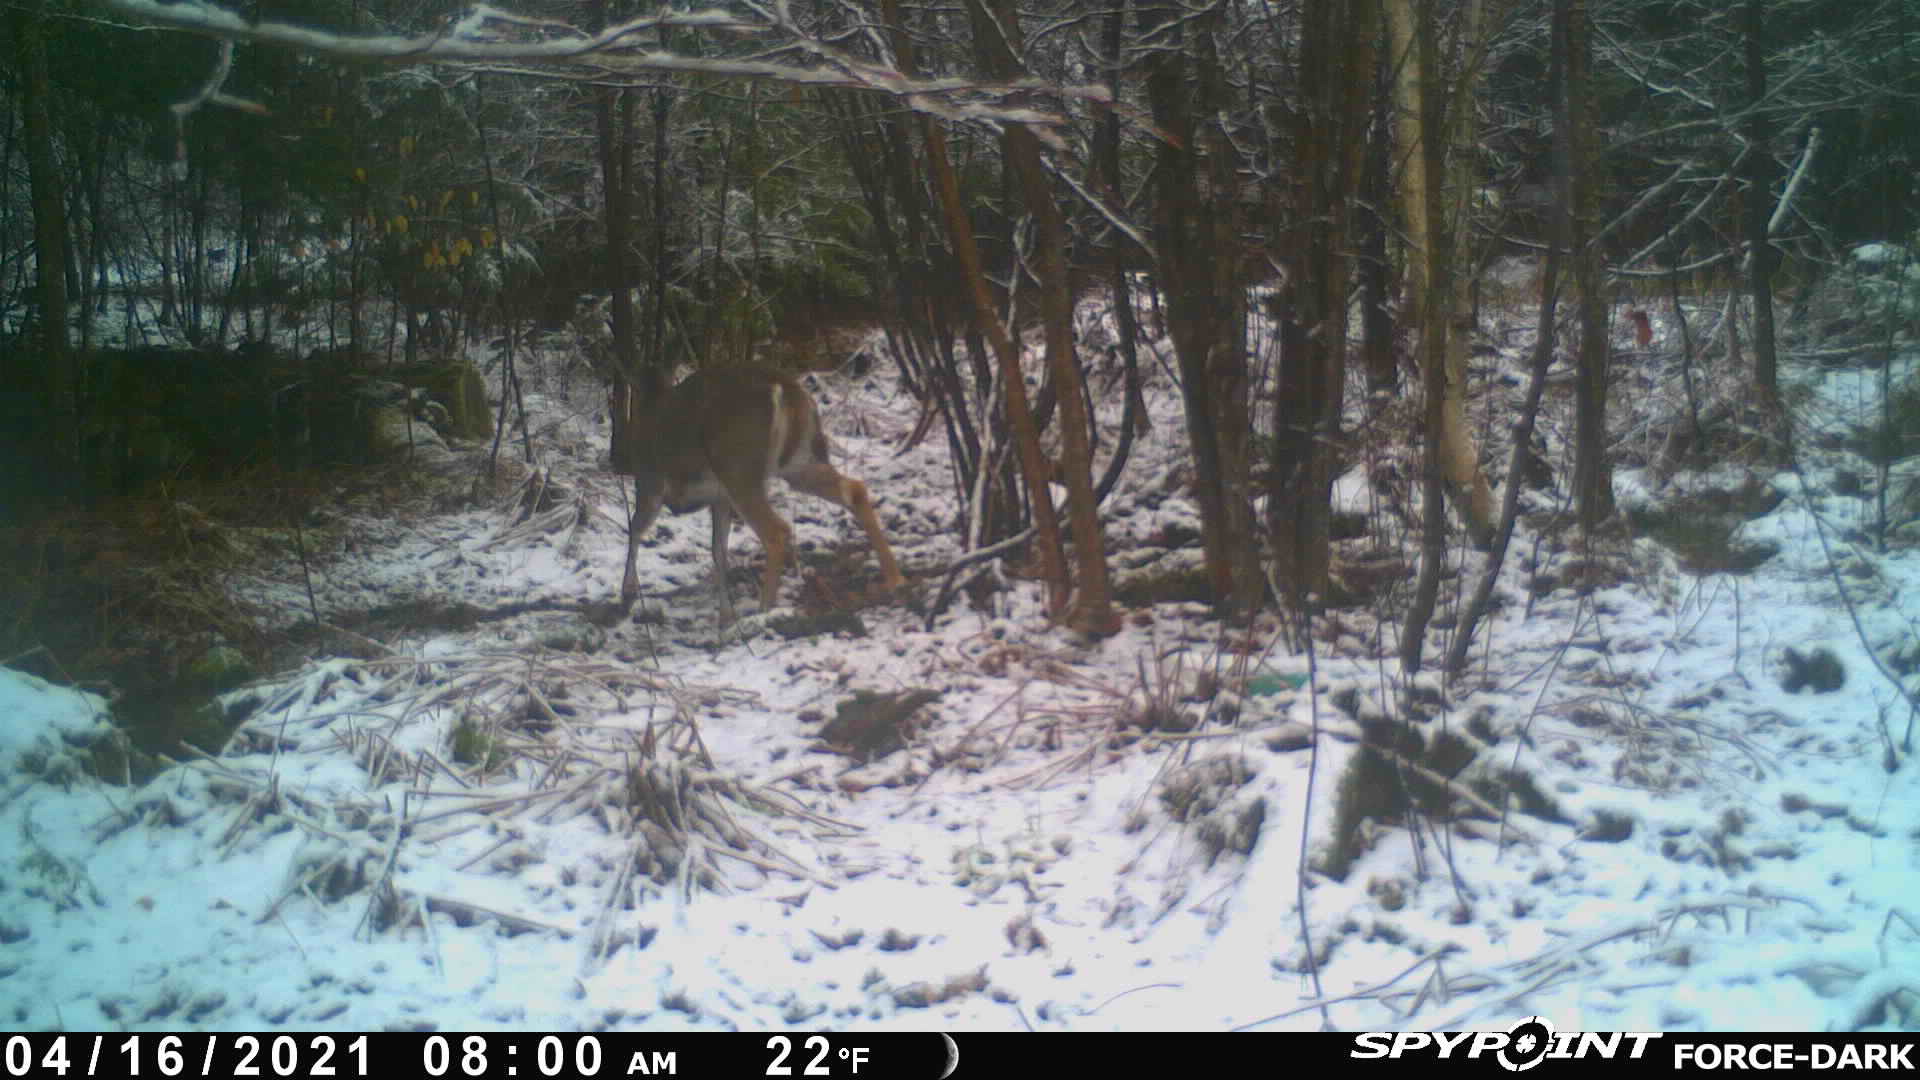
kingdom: Animalia
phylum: Chordata
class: Mammalia
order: Artiodactyla
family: Cervidae
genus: Odocoileus
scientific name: Odocoileus virginianus
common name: White-tailed deer
